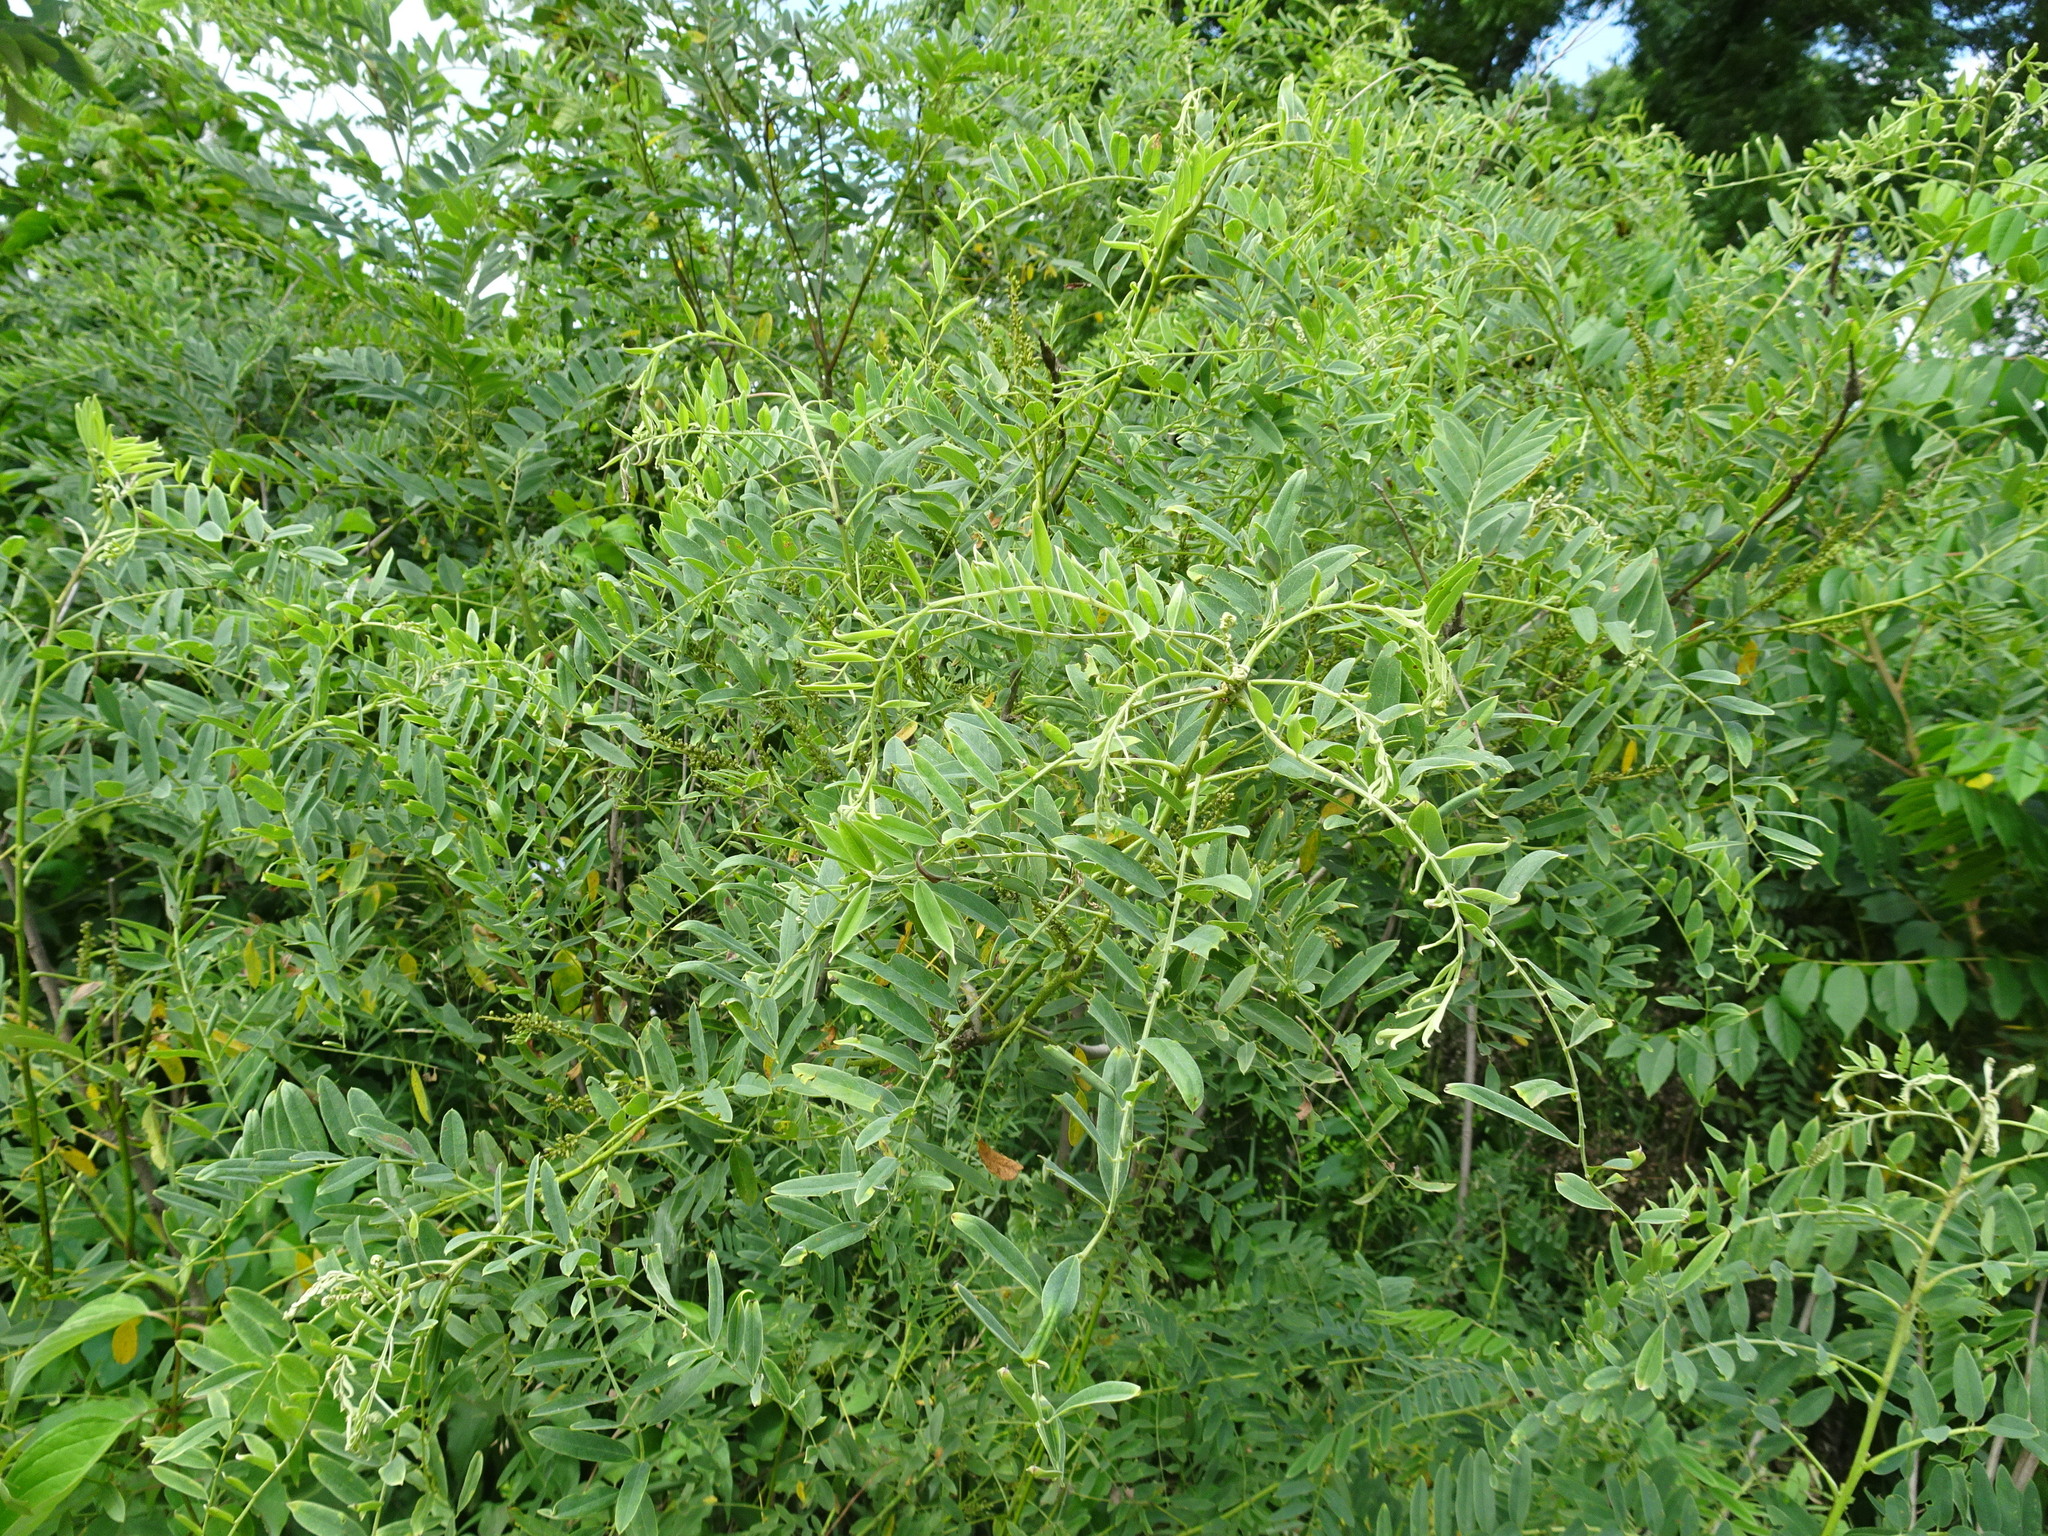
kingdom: Plantae
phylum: Tracheophyta
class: Magnoliopsida
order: Fabales
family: Fabaceae
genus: Amorpha
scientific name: Amorpha fruticosa
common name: False indigo
